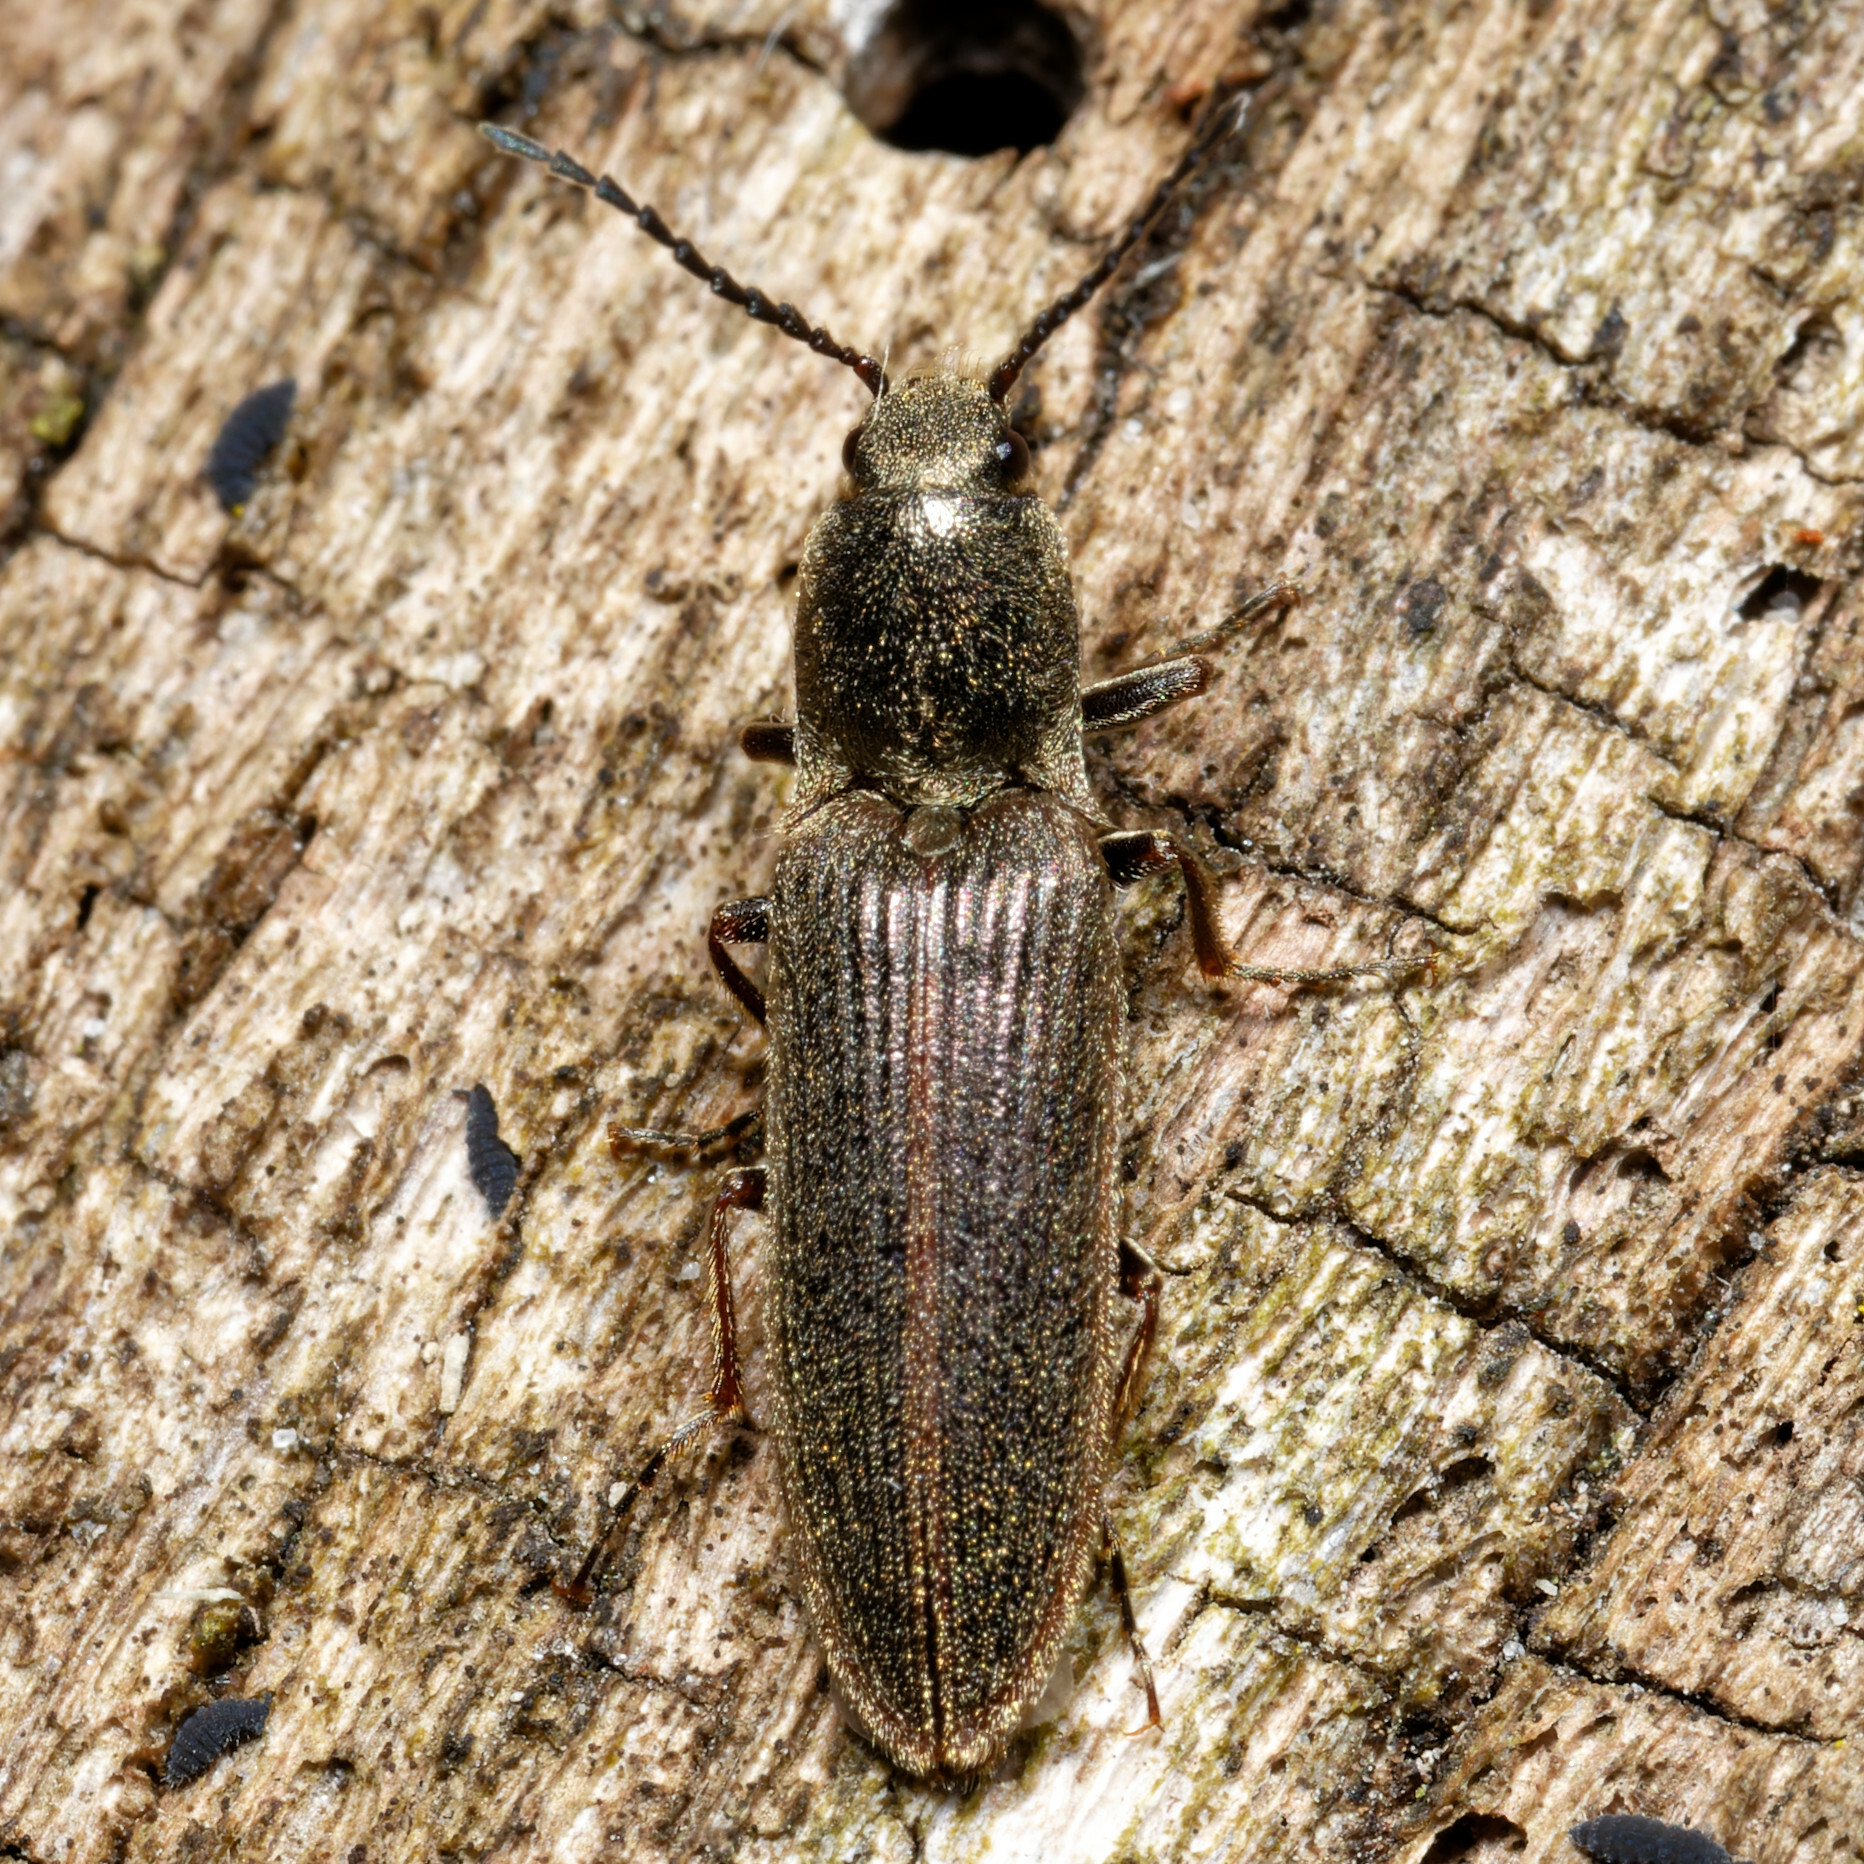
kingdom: Animalia
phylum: Arthropoda
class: Insecta
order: Coleoptera
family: Elateridae
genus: Sylvanelater
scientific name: Sylvanelater cylindriformis
